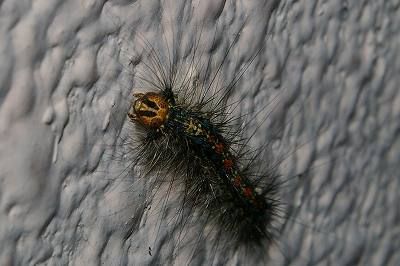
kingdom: Animalia
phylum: Arthropoda
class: Insecta
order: Lepidoptera
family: Erebidae
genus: Lymantria
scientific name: Lymantria dispar
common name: Gypsy moth
